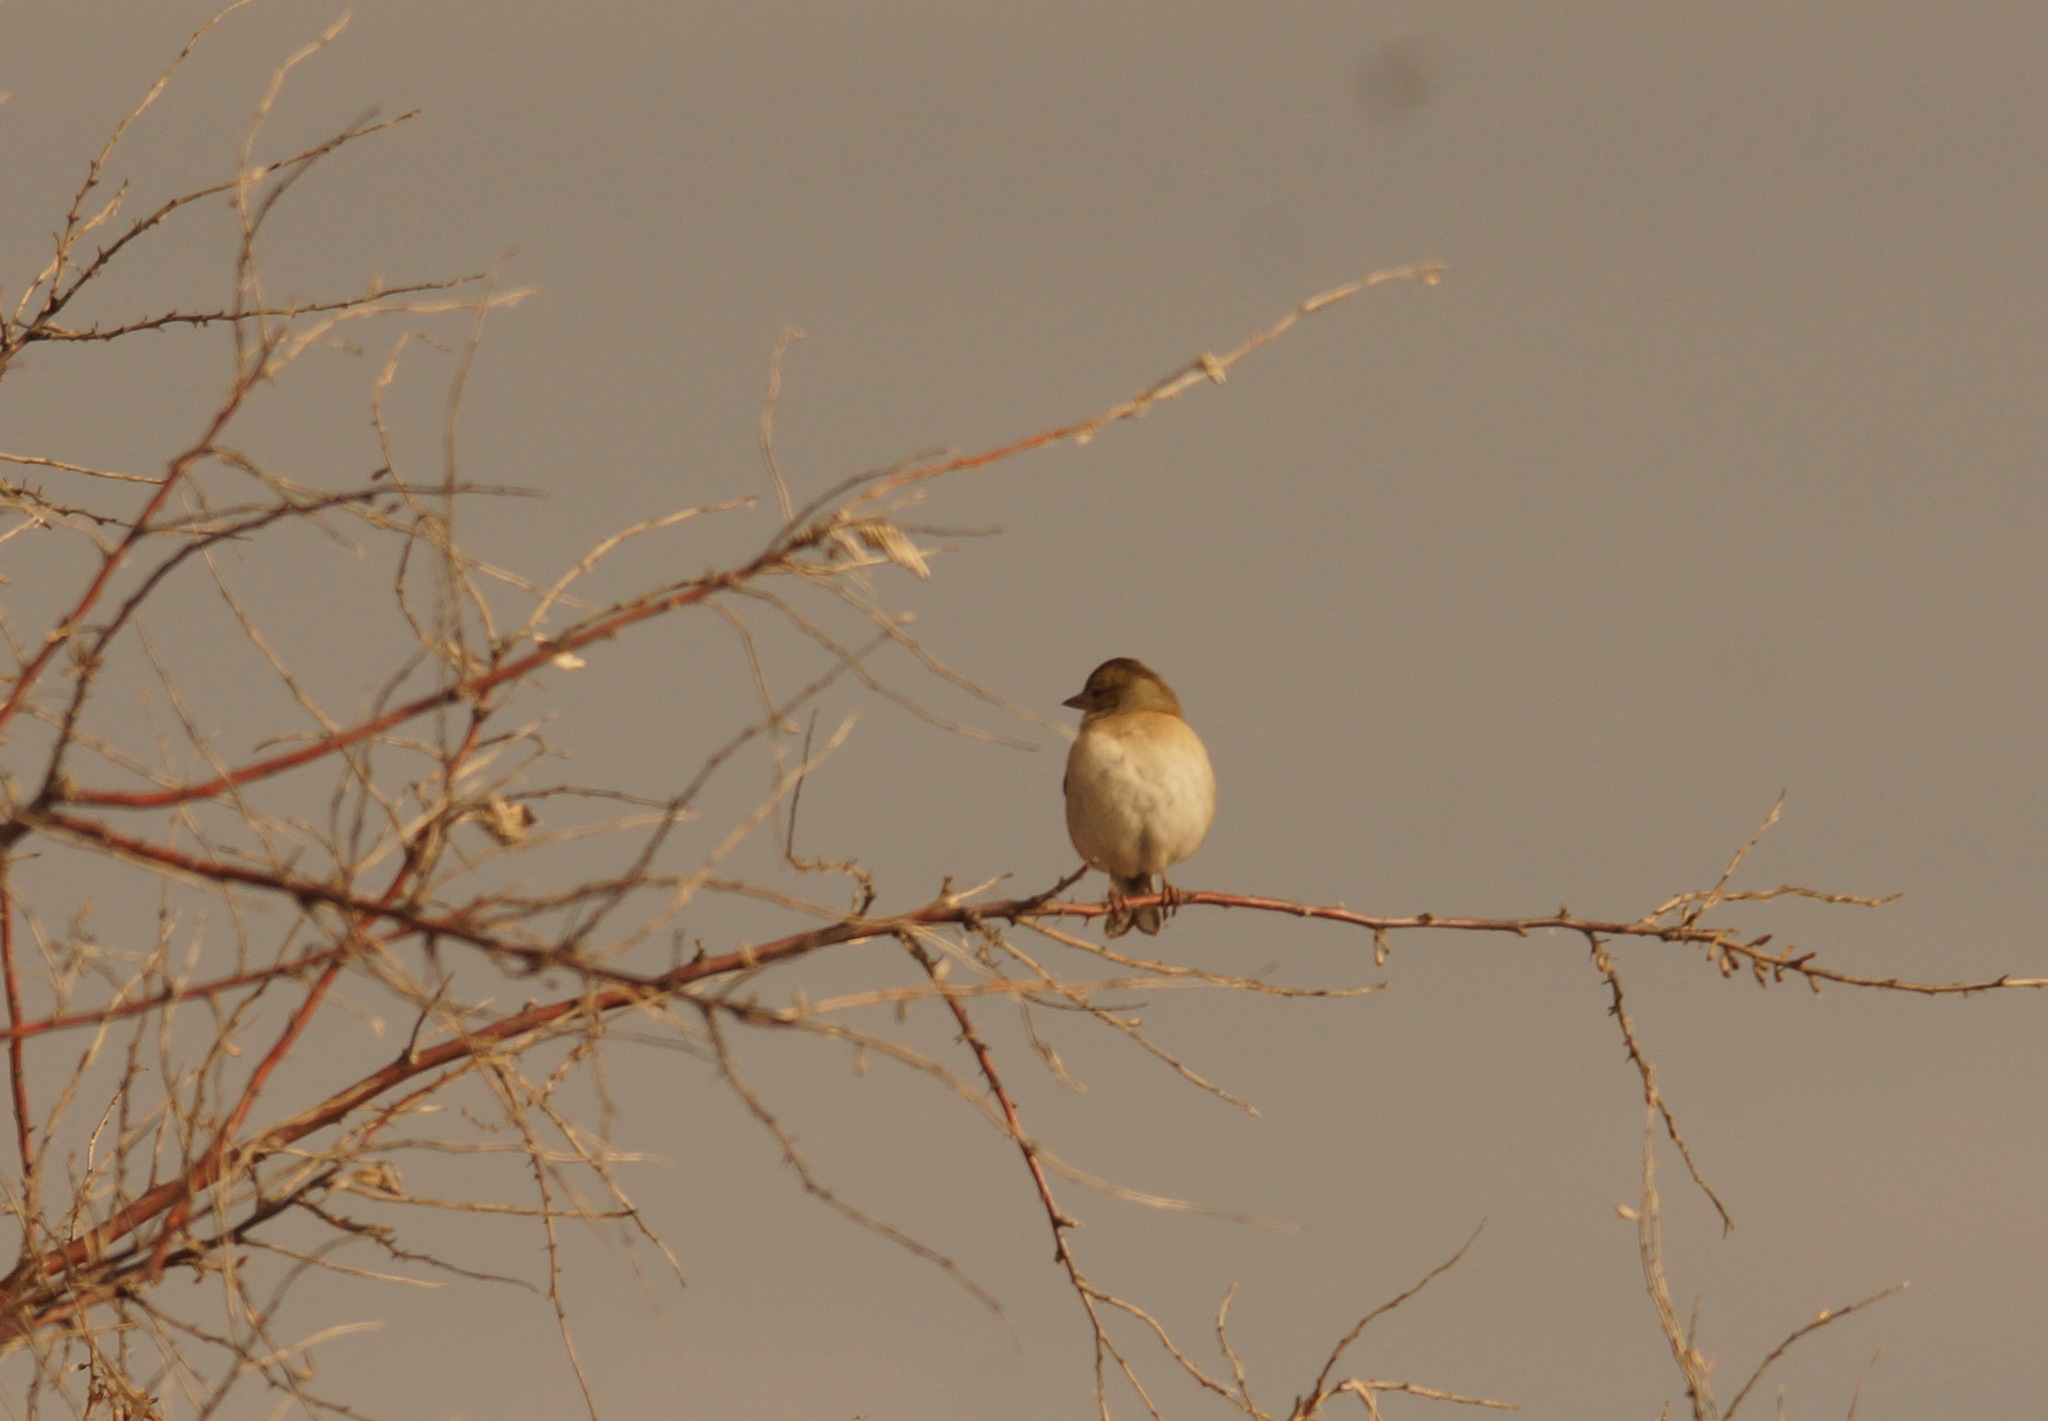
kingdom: Animalia
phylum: Chordata
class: Aves
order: Passeriformes
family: Fringillidae
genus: Fringilla
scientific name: Fringilla coelebs
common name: Common chaffinch
